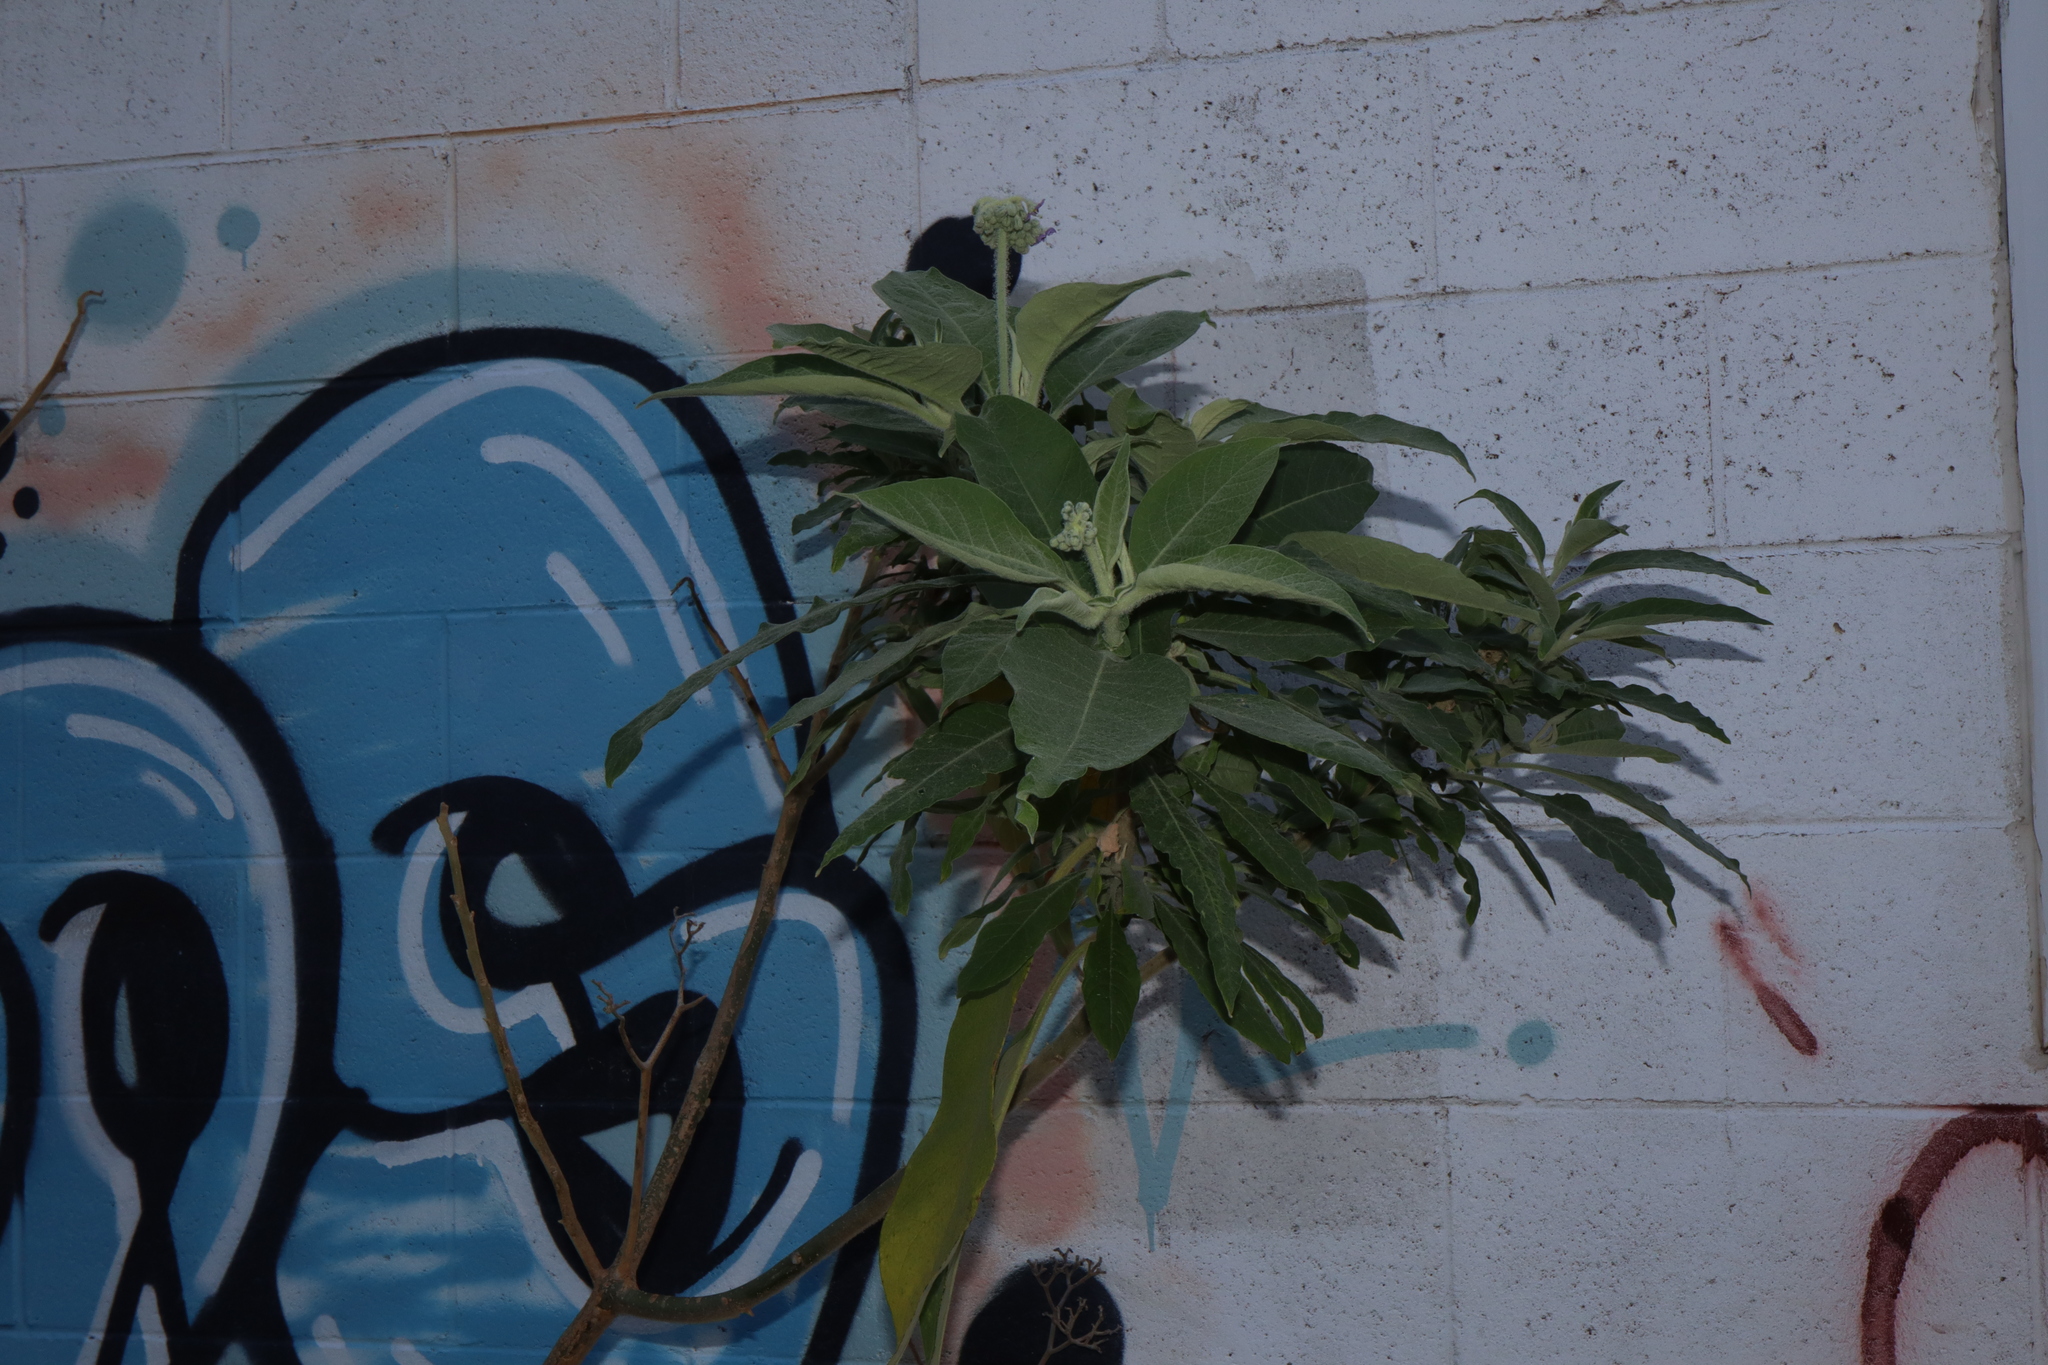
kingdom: Plantae
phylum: Tracheophyta
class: Magnoliopsida
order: Solanales
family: Solanaceae
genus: Solanum
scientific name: Solanum mauritianum
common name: Earleaf nightshade
